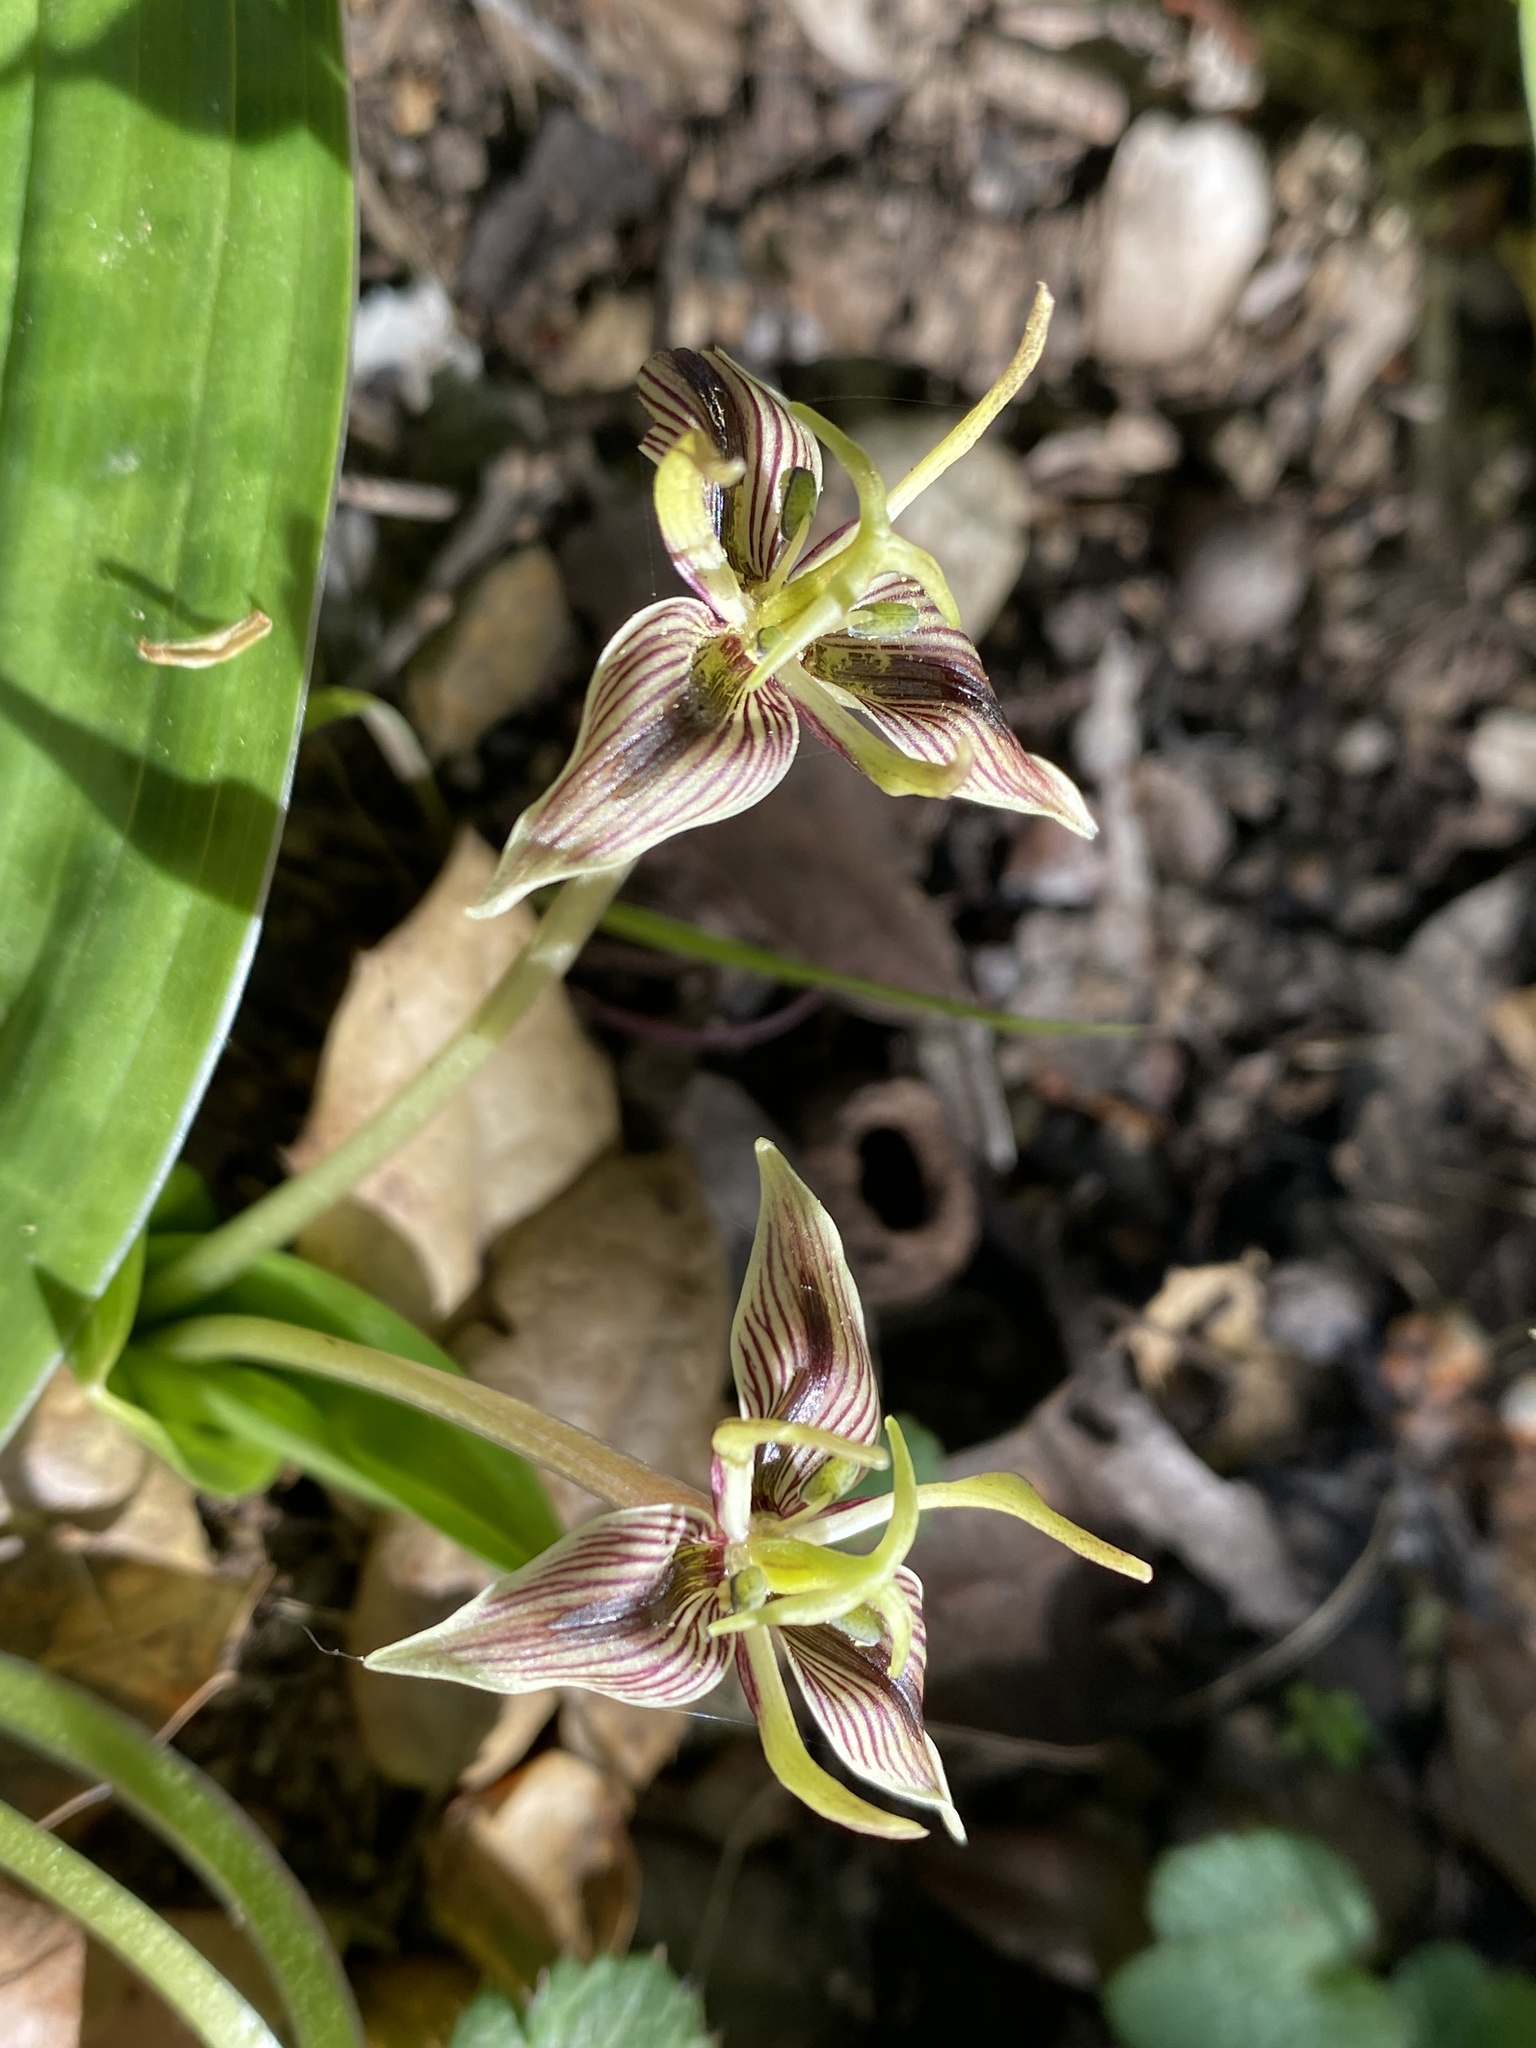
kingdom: Plantae
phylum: Tracheophyta
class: Liliopsida
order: Liliales
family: Liliaceae
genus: Scoliopus
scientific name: Scoliopus bigelovii
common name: Foetid adder's-tongue
